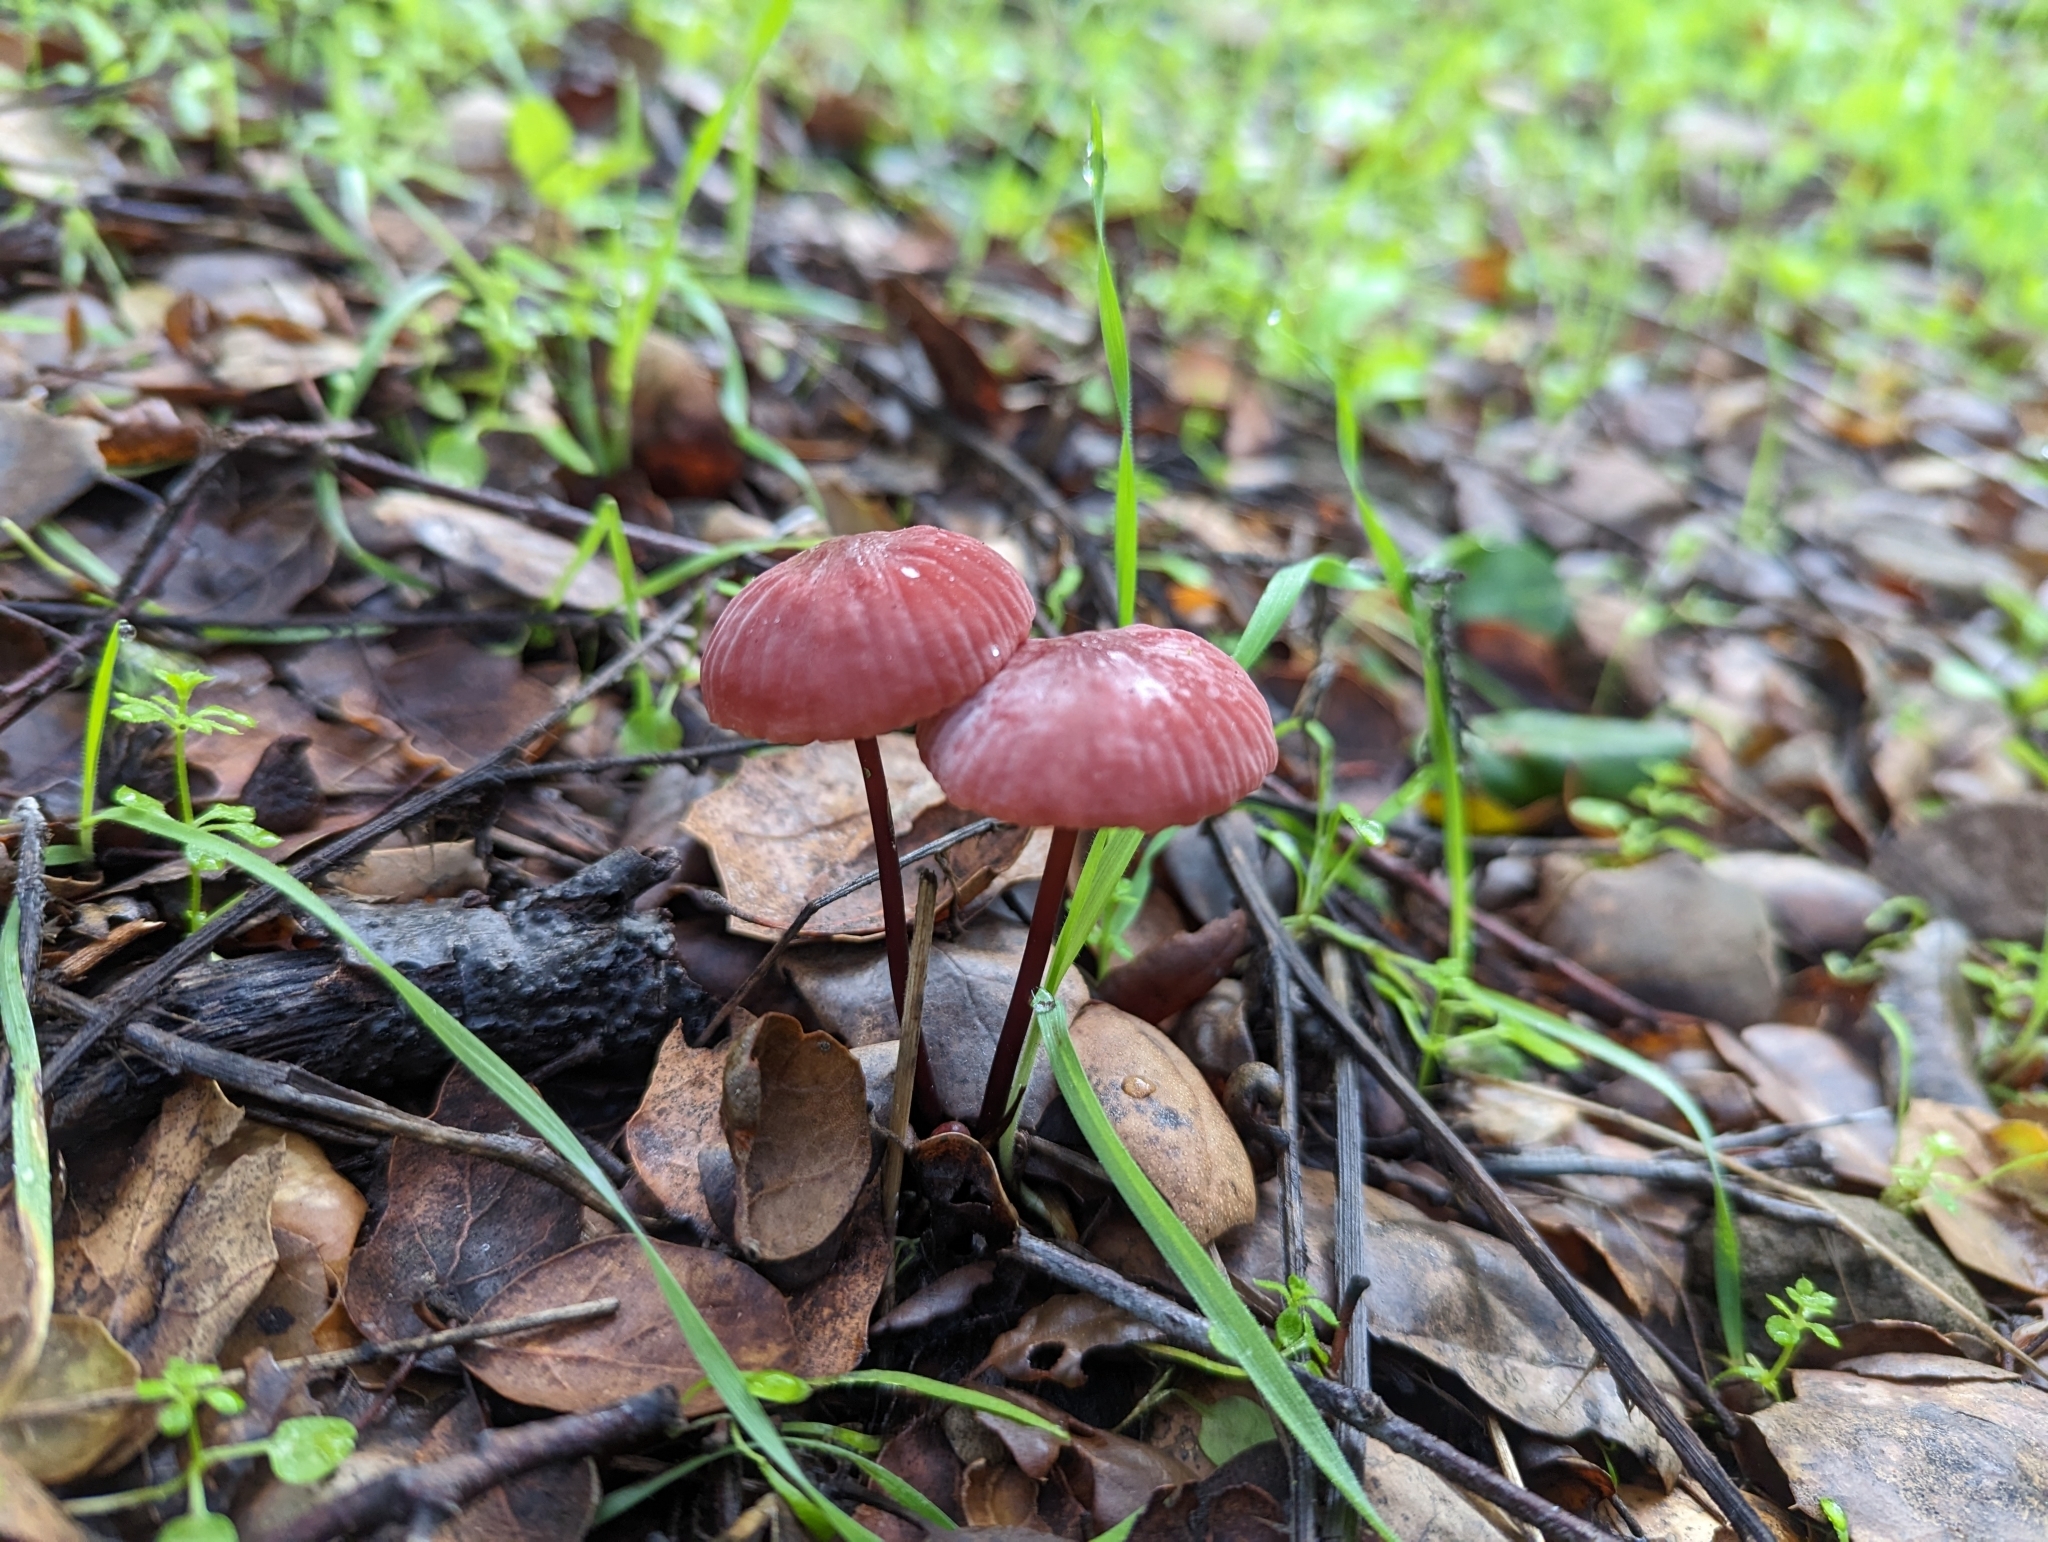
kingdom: Fungi
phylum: Basidiomycota
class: Agaricomycetes
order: Agaricales
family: Marasmiaceae
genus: Marasmius
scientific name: Marasmius plicatulus
